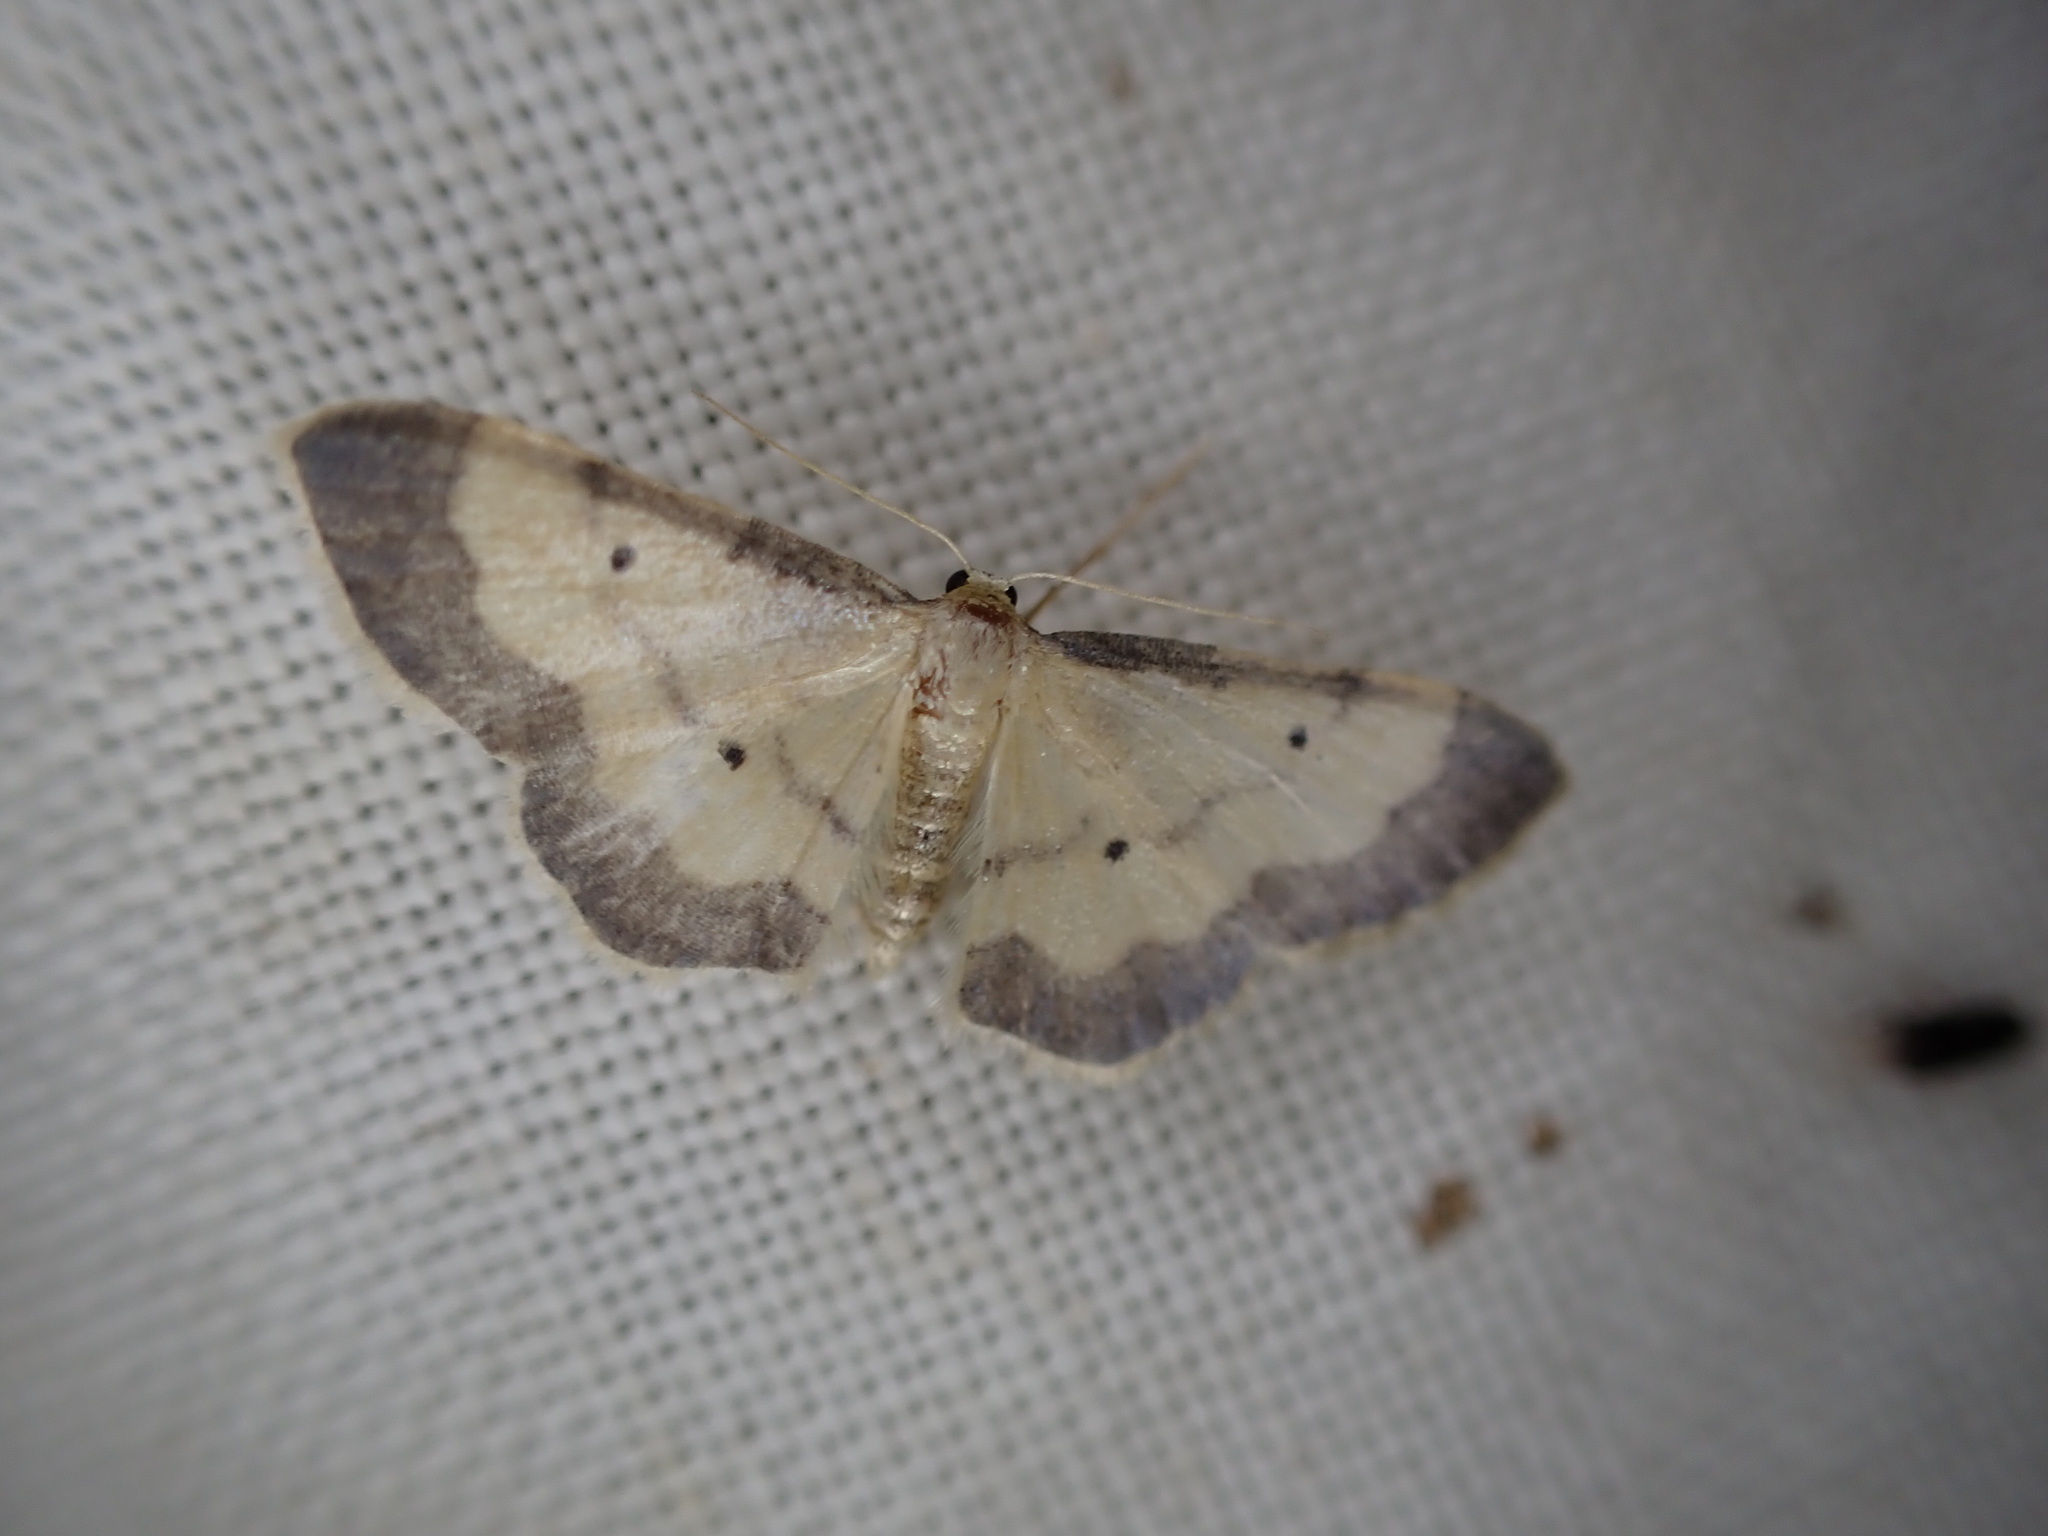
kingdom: Animalia
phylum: Arthropoda
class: Insecta
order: Lepidoptera
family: Geometridae
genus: Idaea
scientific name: Idaea politaria
